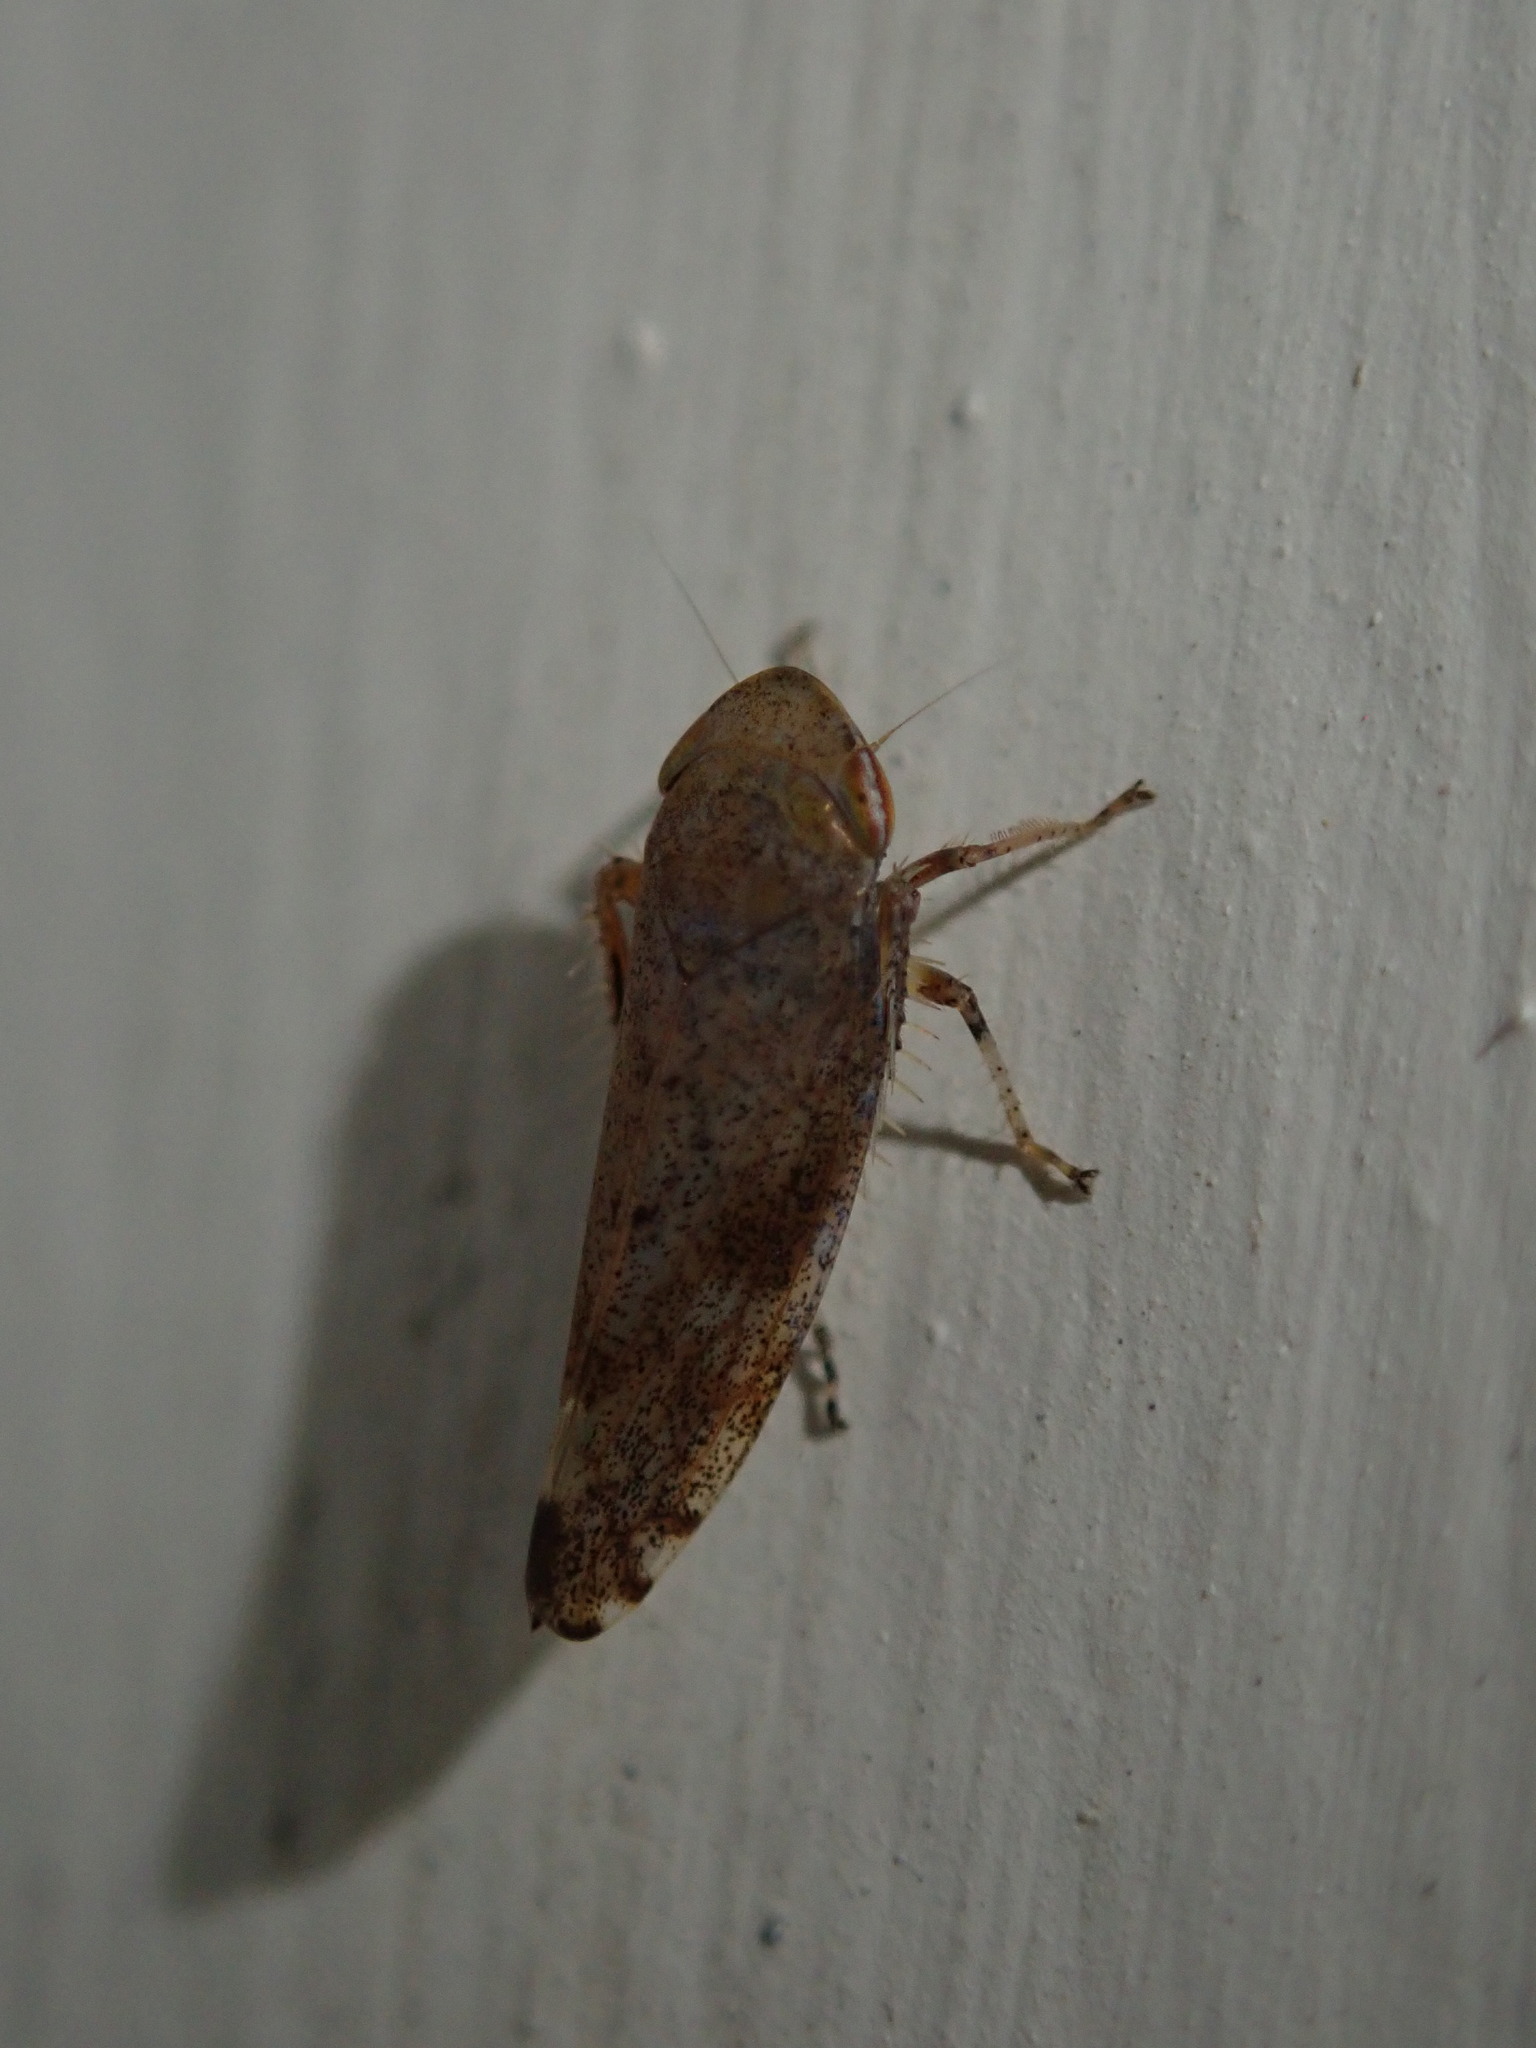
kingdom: Animalia
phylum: Arthropoda
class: Insecta
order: Hemiptera
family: Cicadellidae
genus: Fieberiella
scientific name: Fieberiella florii
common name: Flor’s leafhopper
